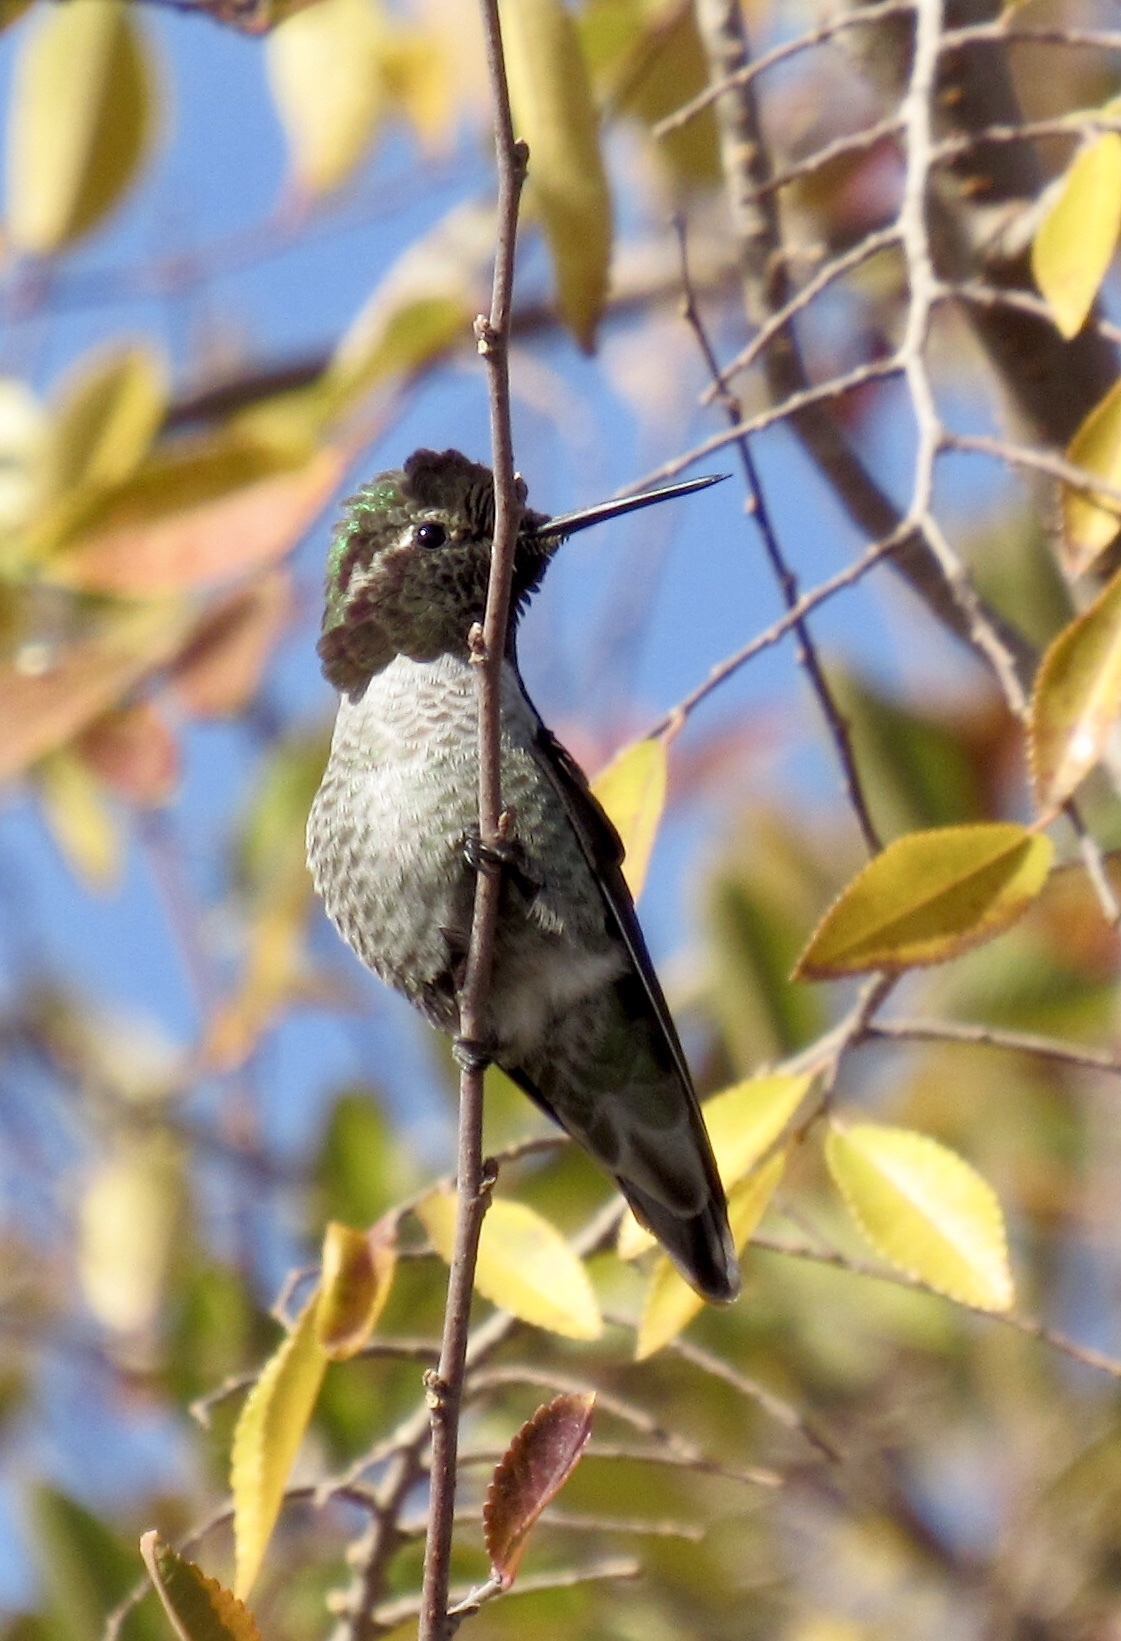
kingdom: Animalia
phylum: Chordata
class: Aves
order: Apodiformes
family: Trochilidae
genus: Calypte
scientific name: Calypte anna
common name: Anna's hummingbird
